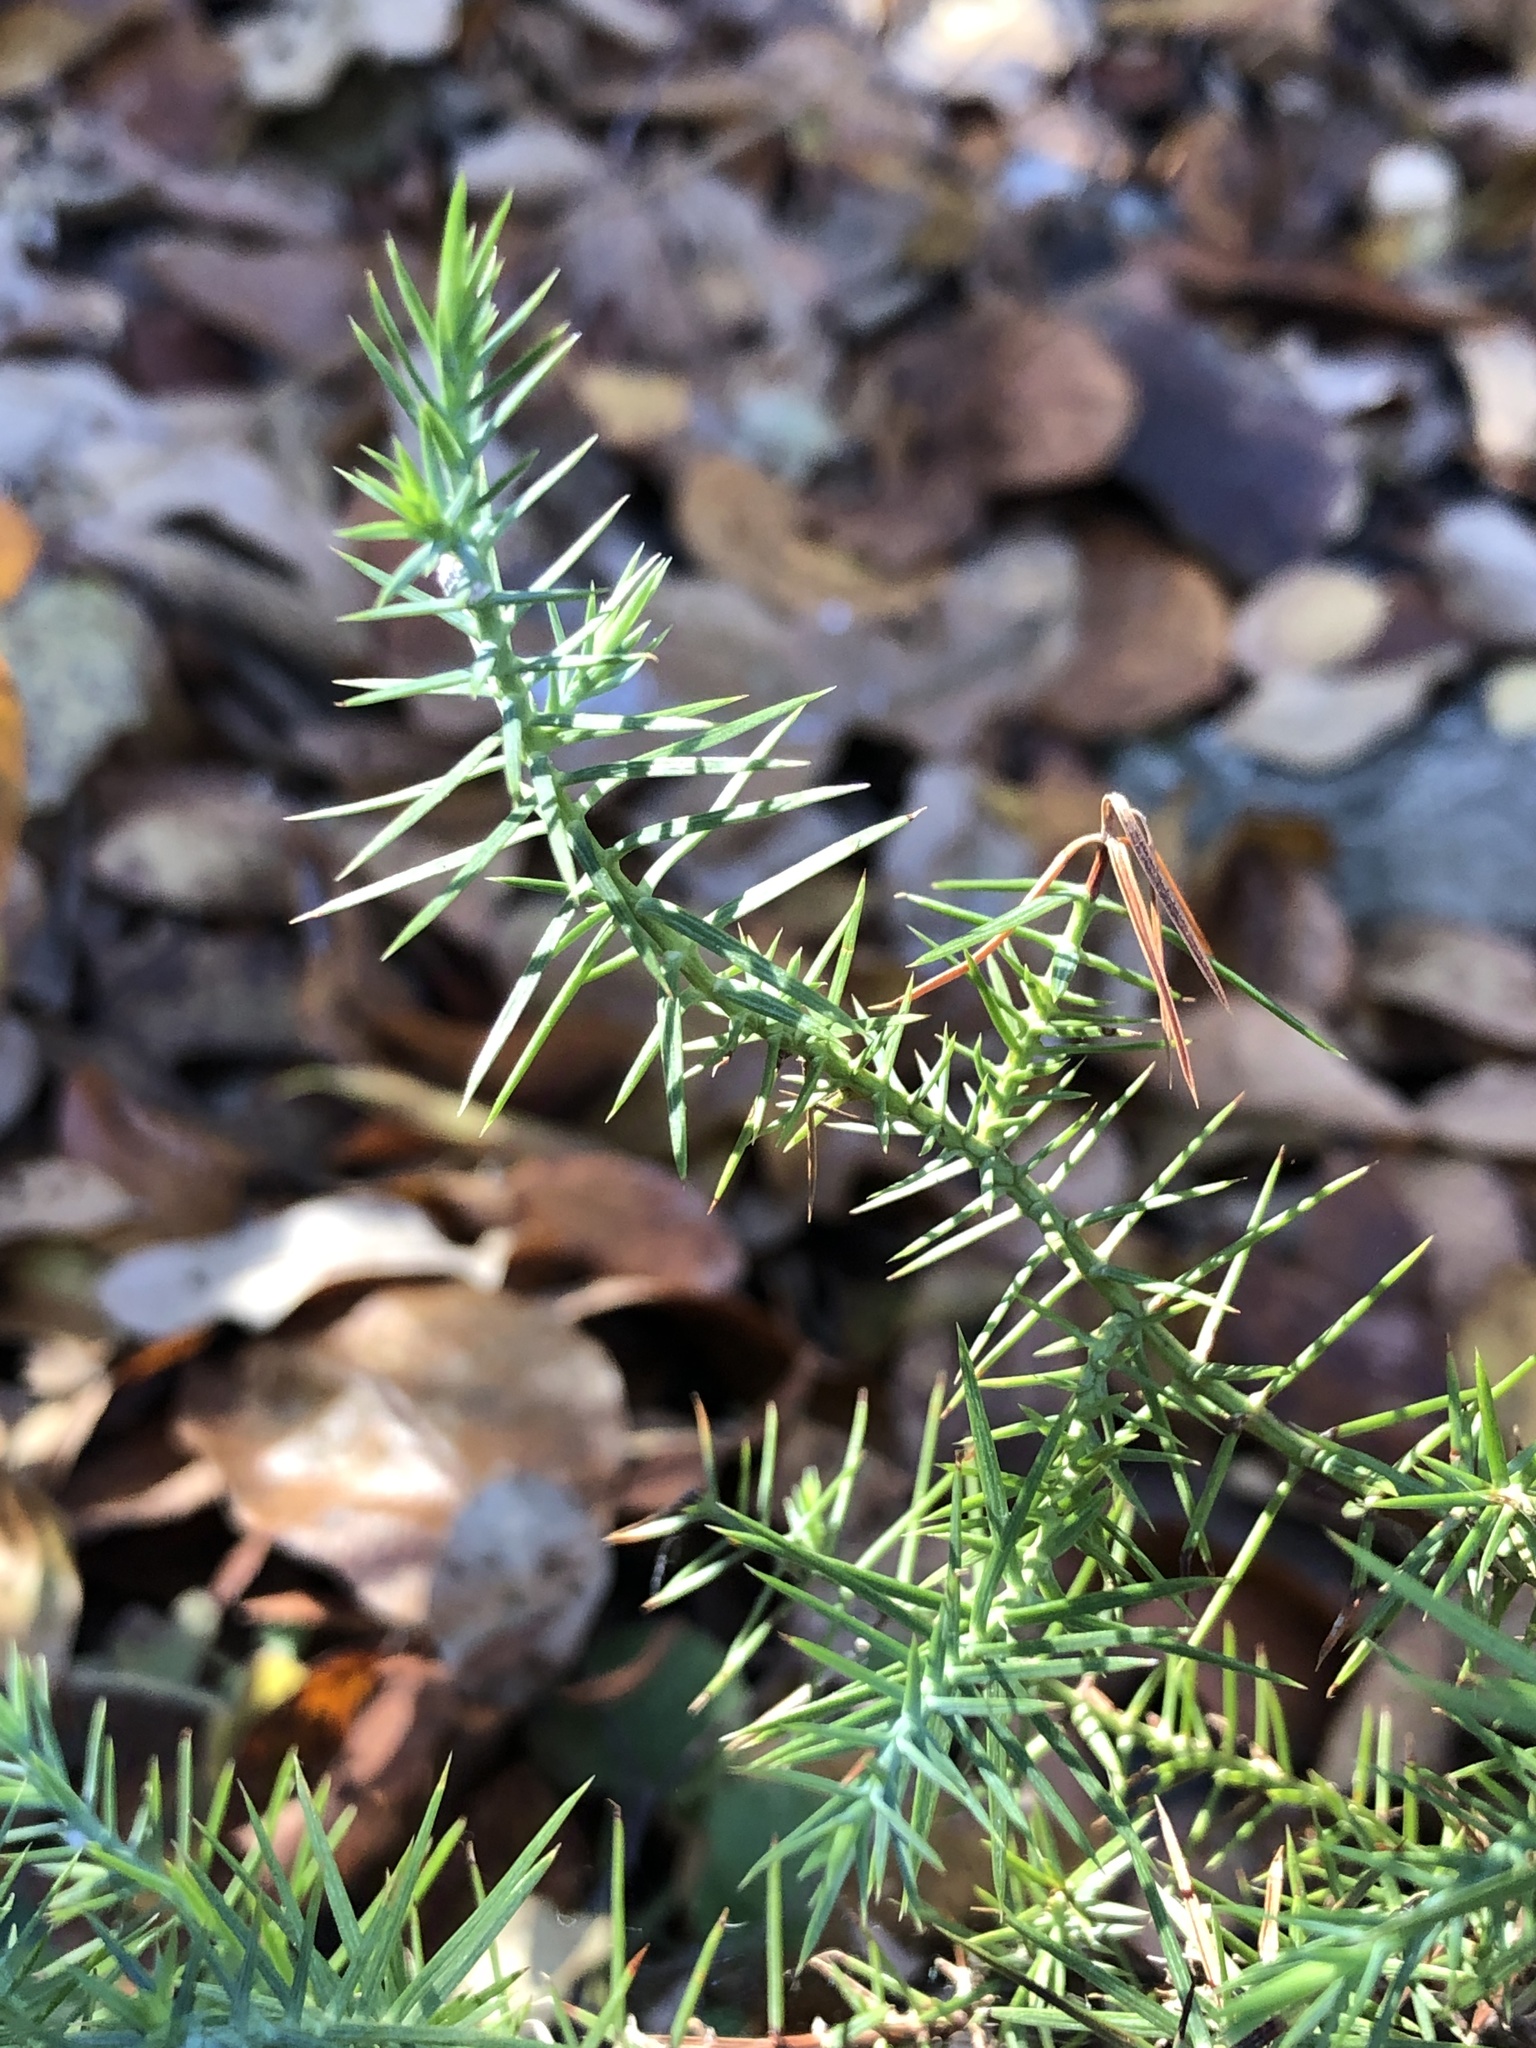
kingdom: Plantae
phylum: Tracheophyta
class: Pinopsida
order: Pinales
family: Cupressaceae
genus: Juniperus
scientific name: Juniperus ashei
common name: Mexican juniper
